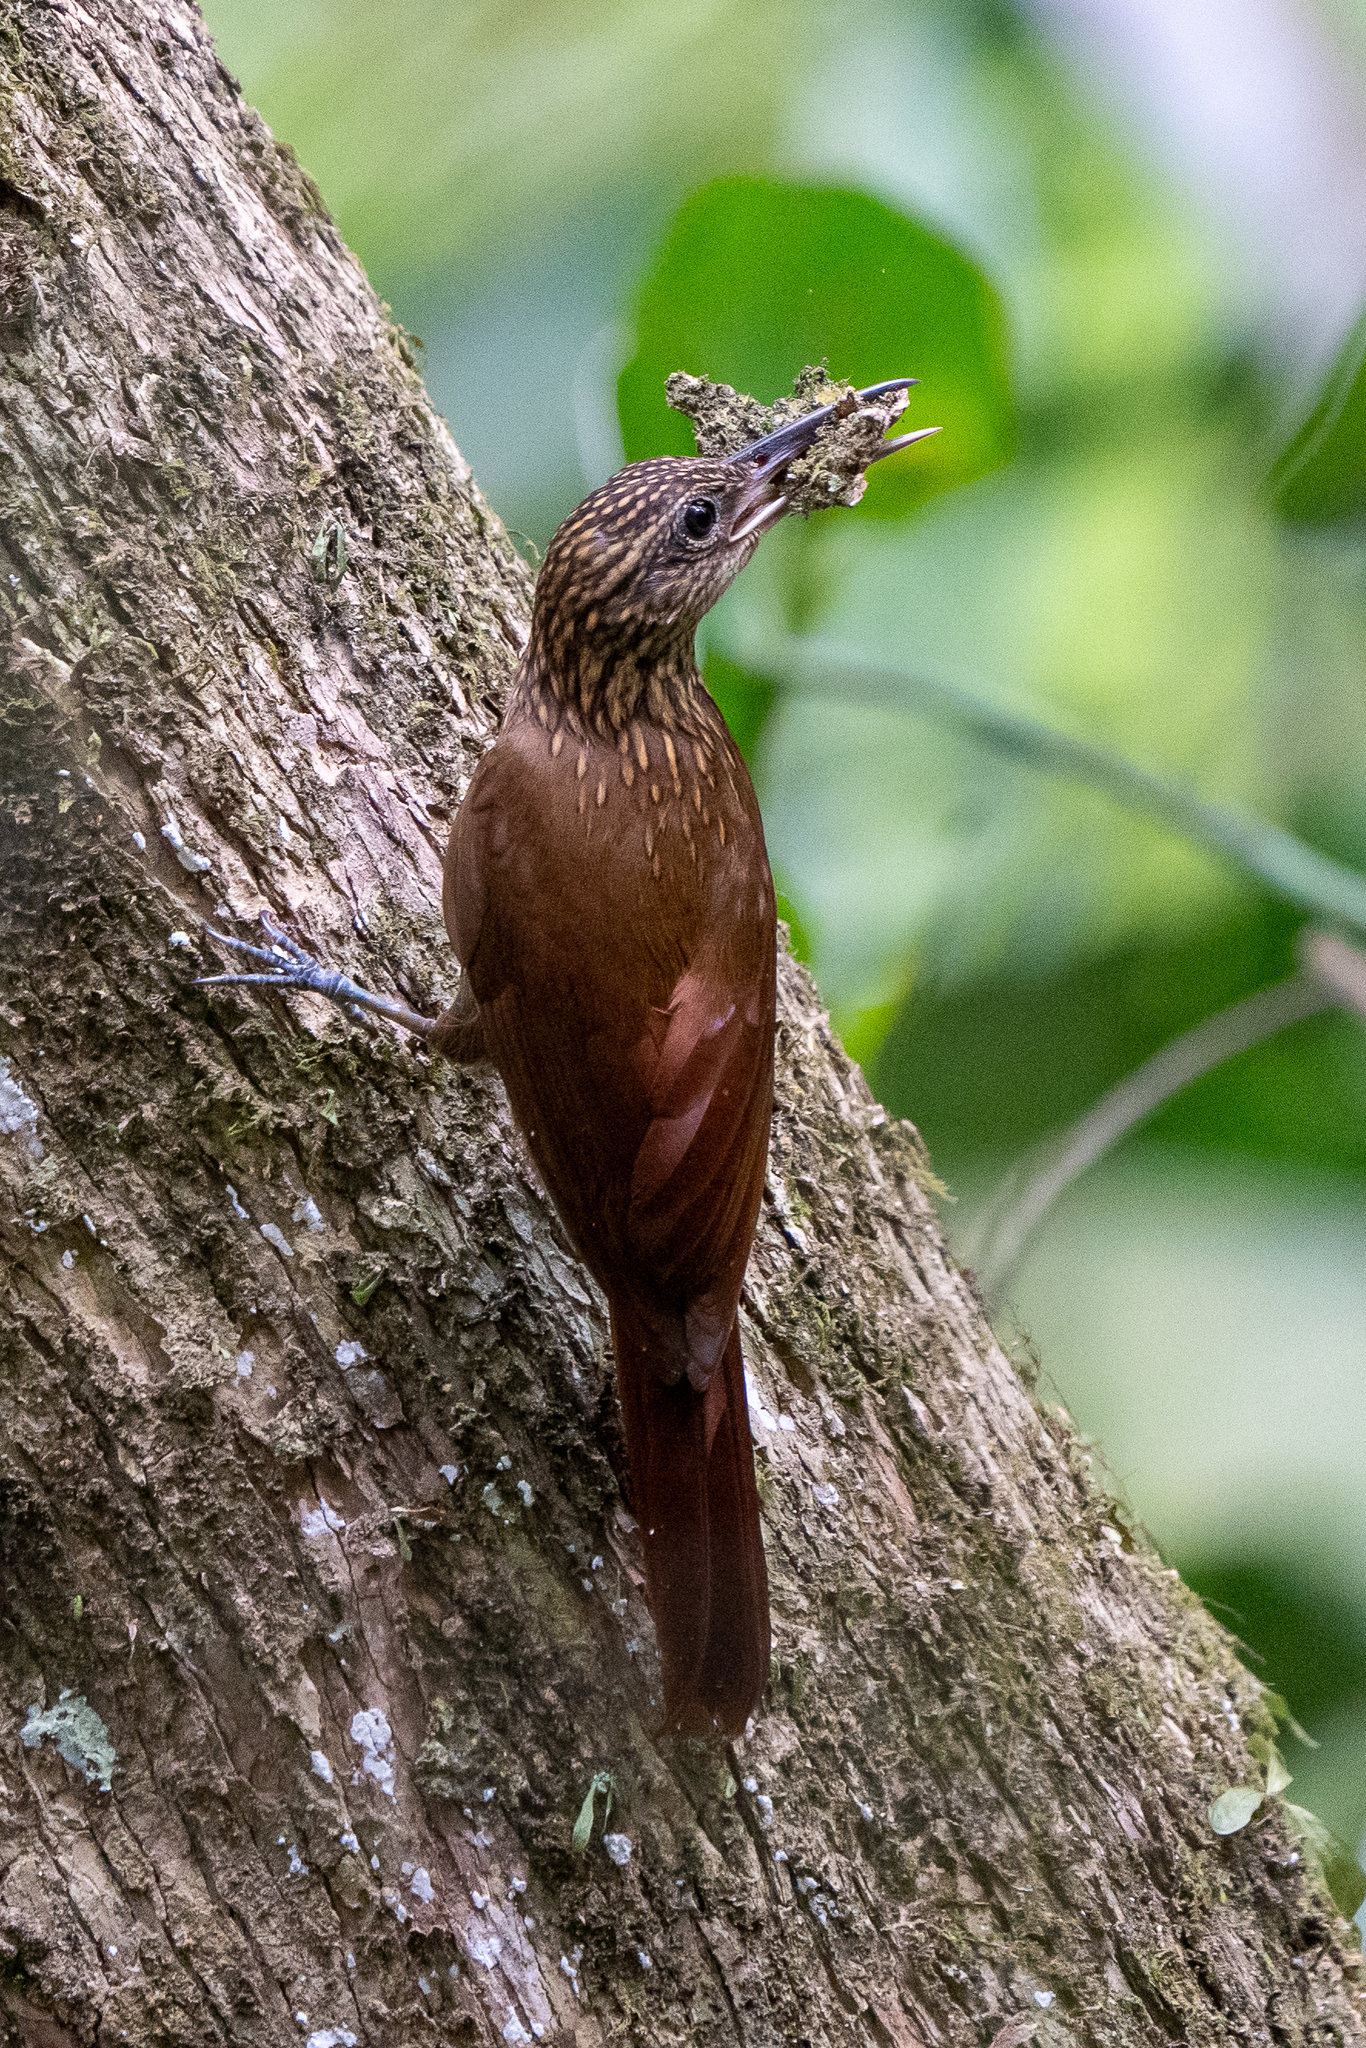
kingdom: Animalia
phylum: Chordata
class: Aves
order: Passeriformes
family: Furnariidae
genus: Xiphorhynchus
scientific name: Xiphorhynchus susurrans
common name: Cocoa woodcreeper
